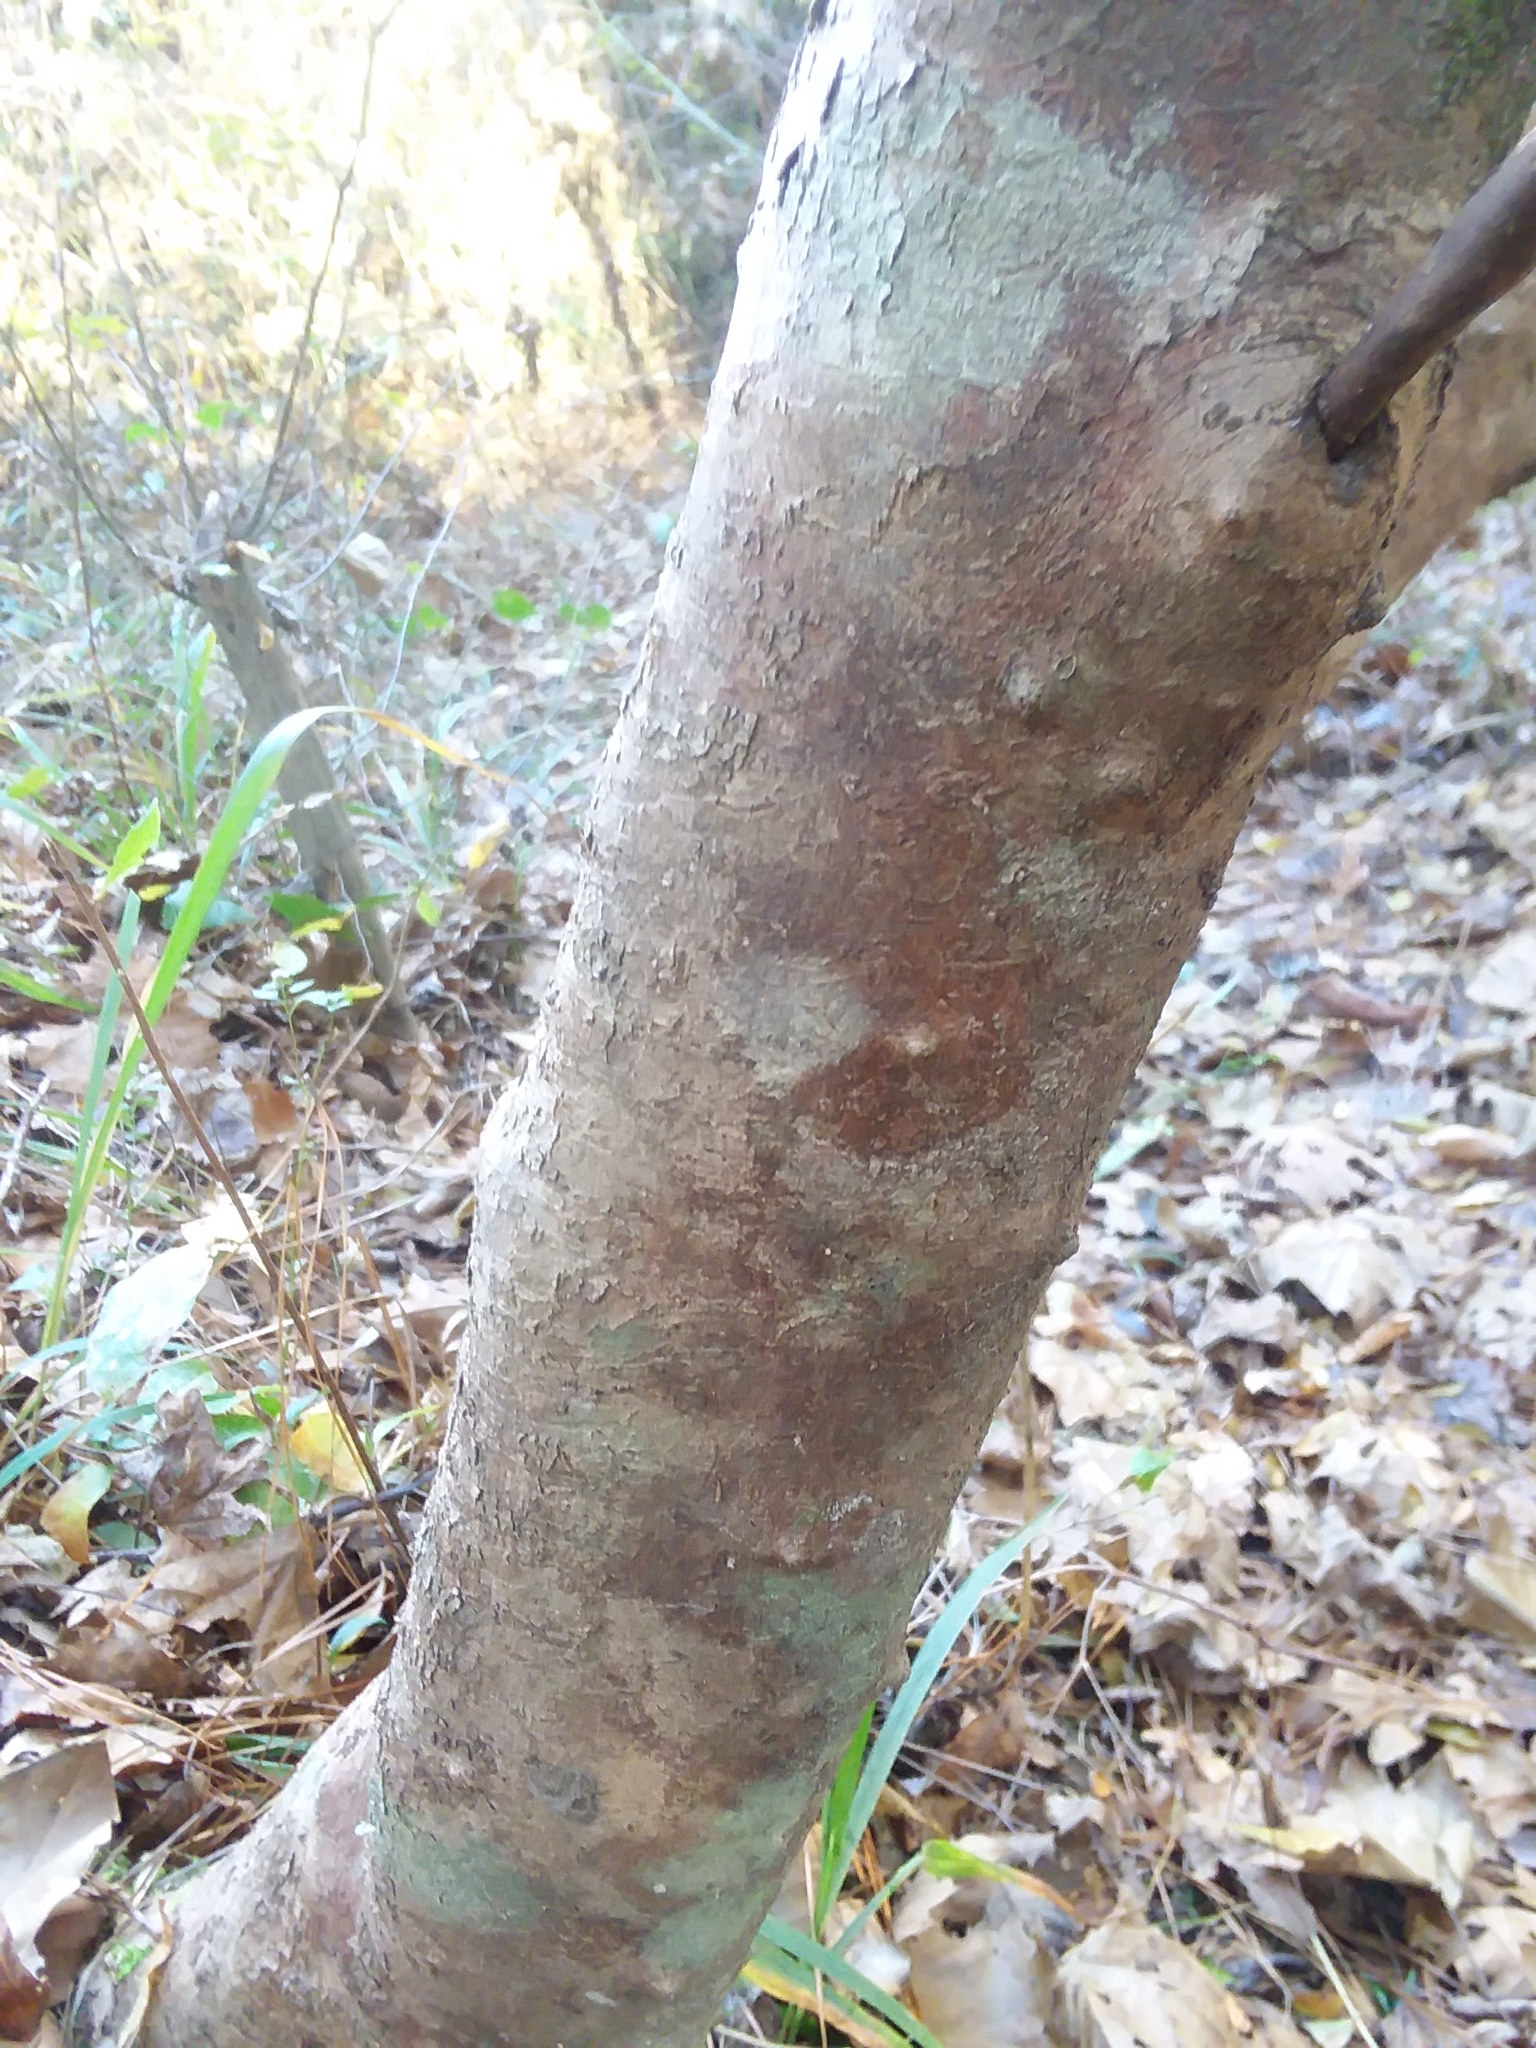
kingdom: Plantae
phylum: Tracheophyta
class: Magnoliopsida
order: Ericales
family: Ericaceae
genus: Rhododendron
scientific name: Rhododendron canescens
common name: Mountain azalea
